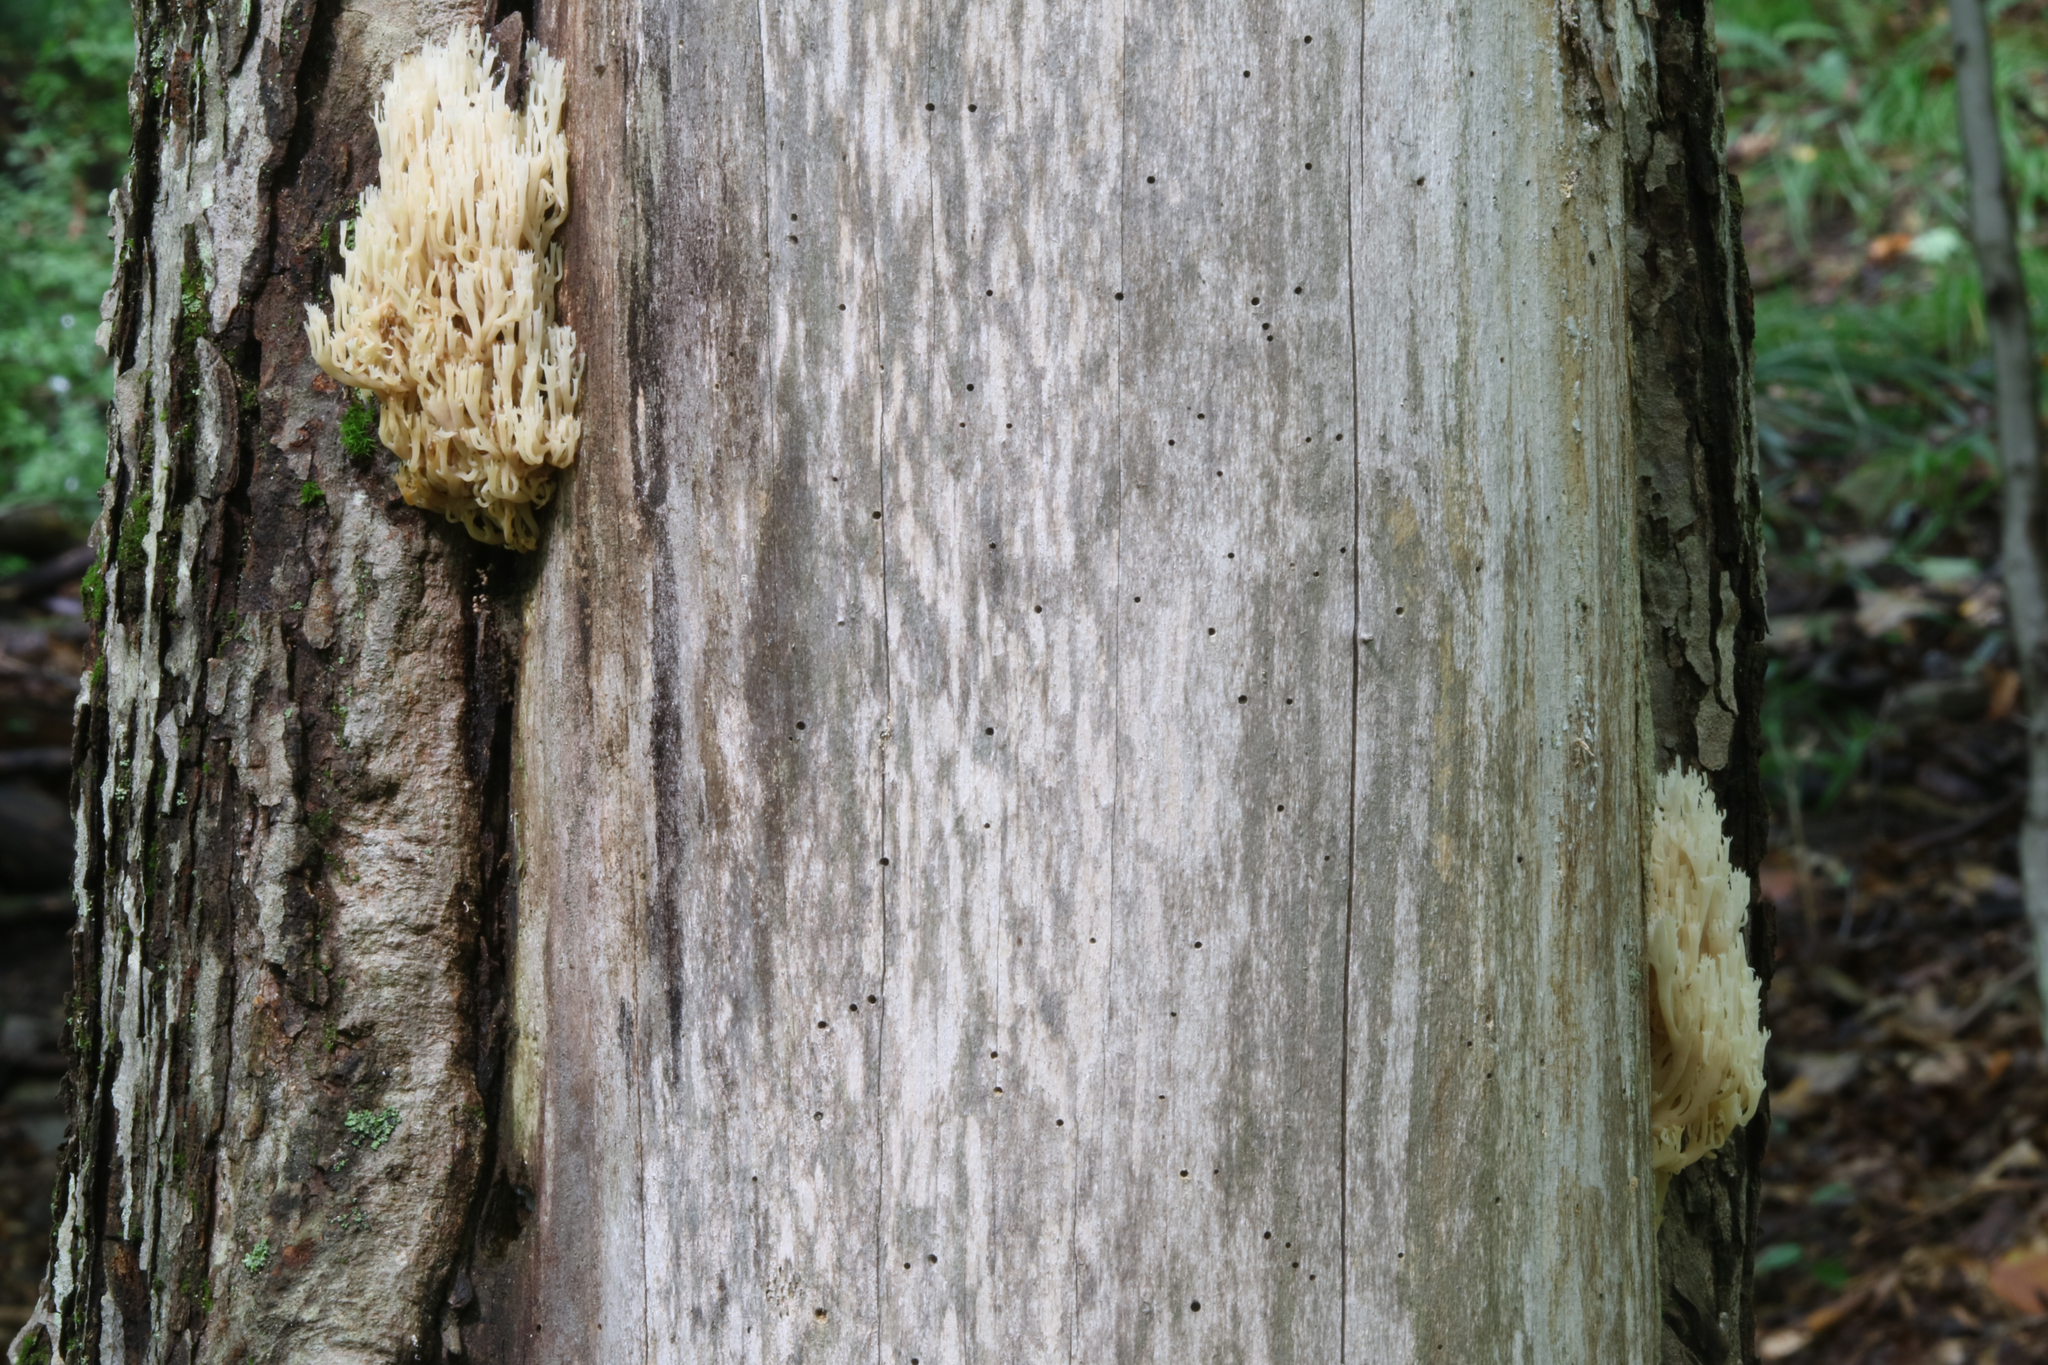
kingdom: Fungi
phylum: Basidiomycota
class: Agaricomycetes
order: Russulales
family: Auriscalpiaceae
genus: Artomyces
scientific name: Artomyces pyxidatus
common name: Crown-tipped coral fungus
